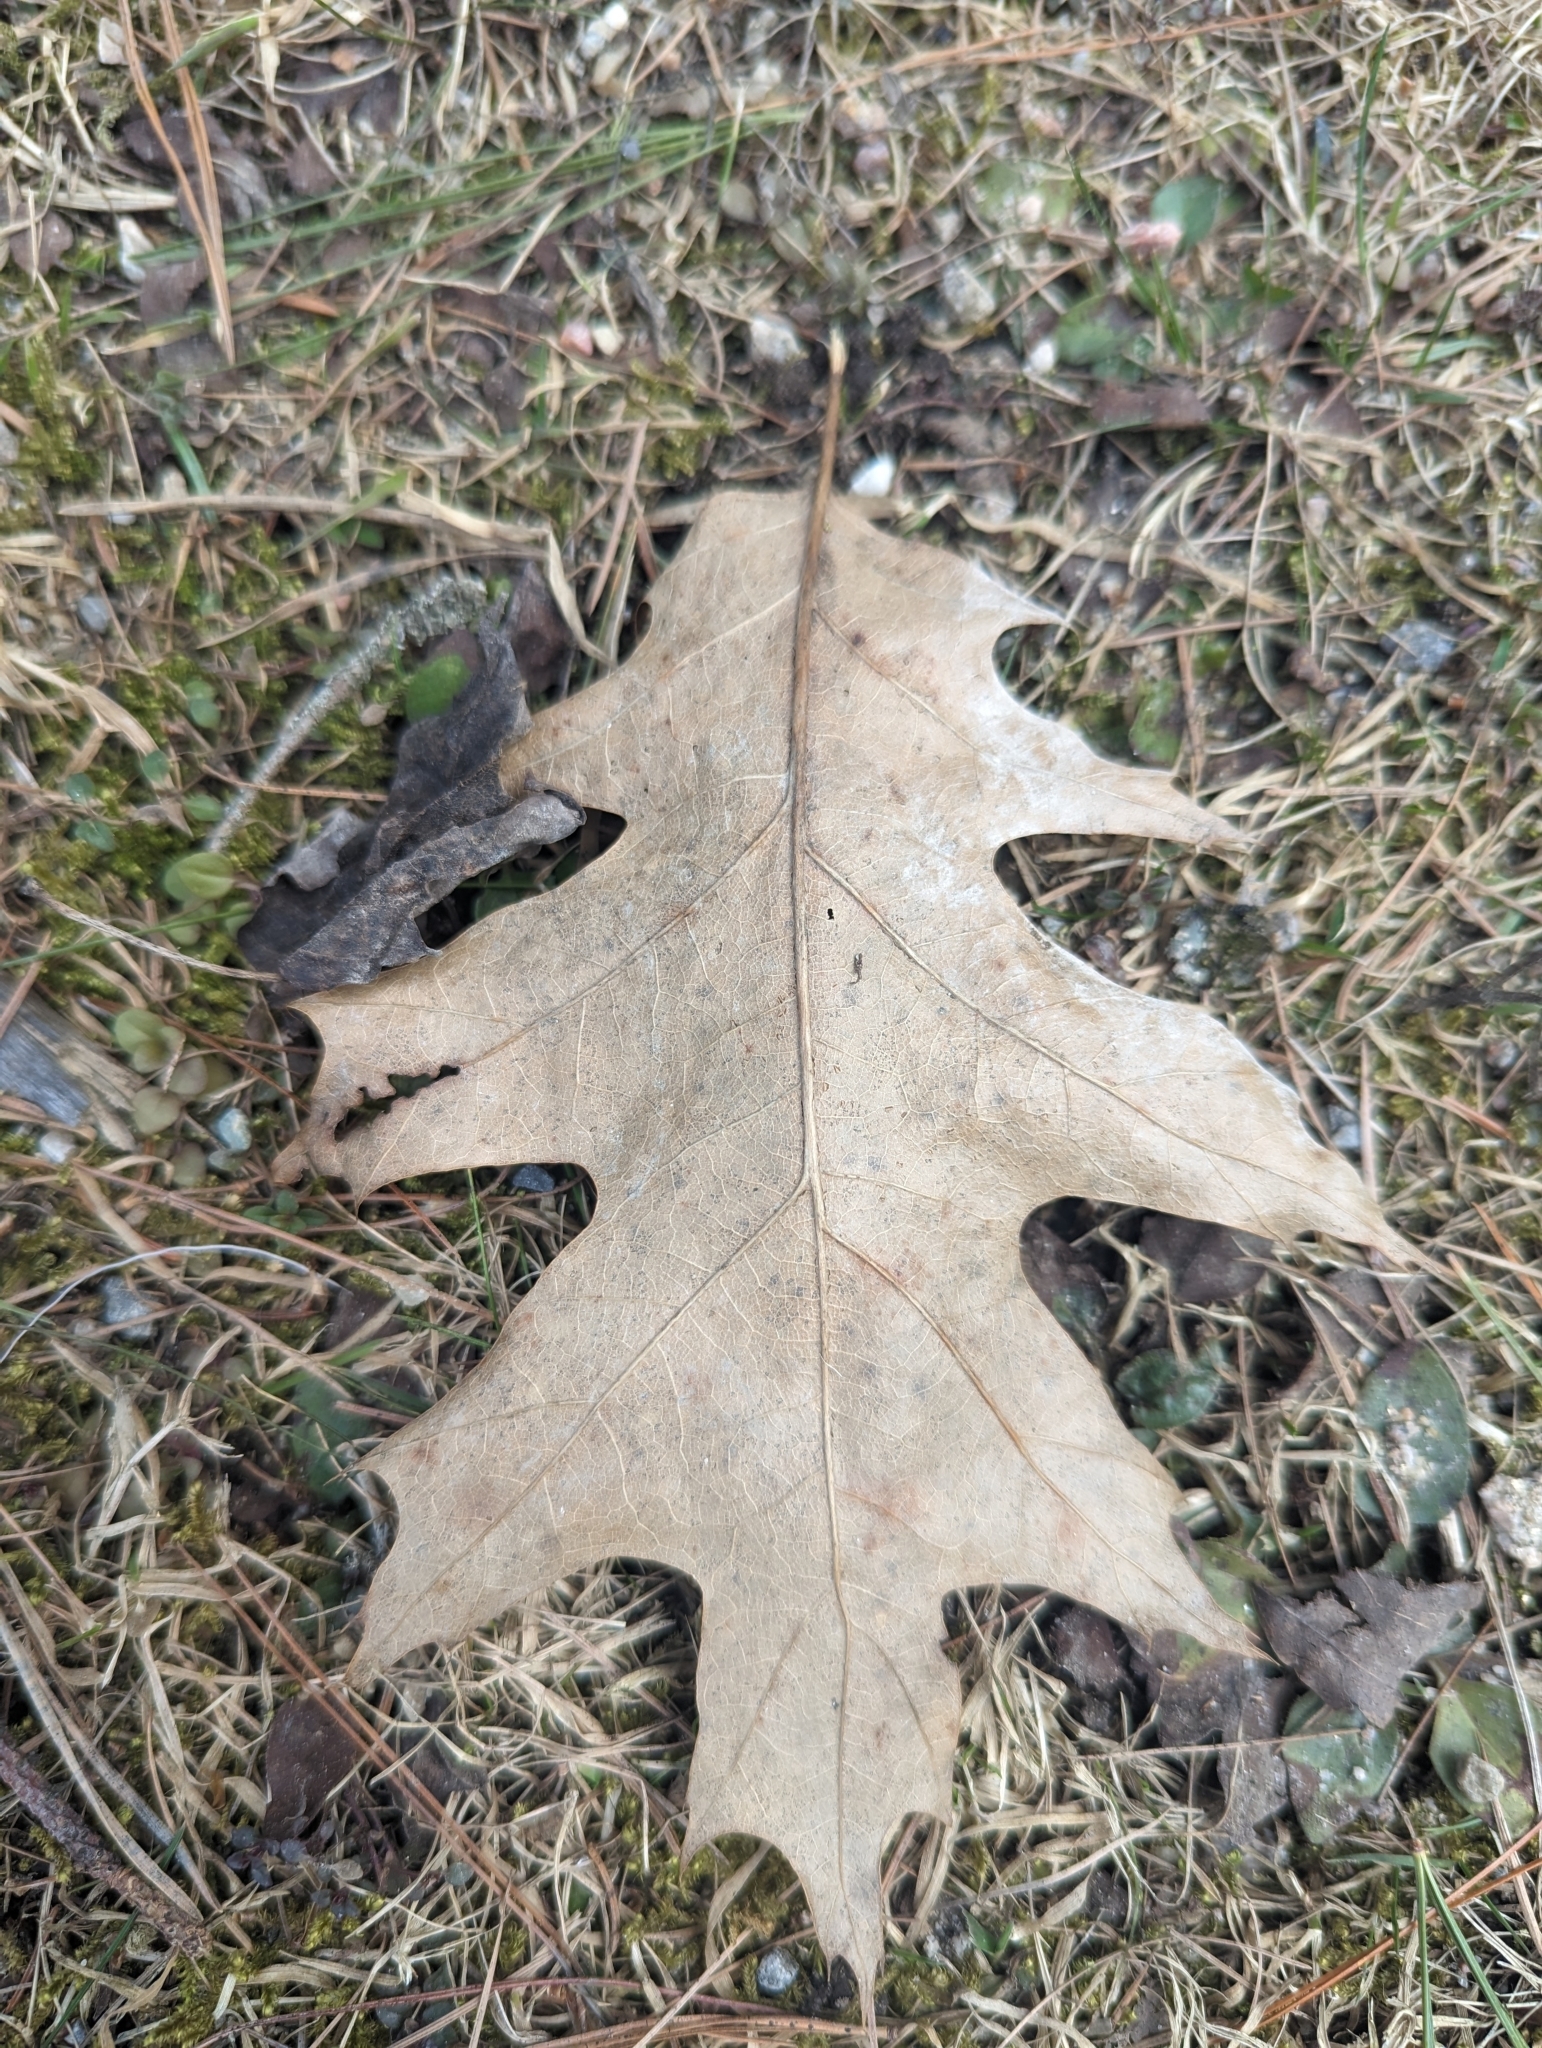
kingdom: Plantae
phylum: Tracheophyta
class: Magnoliopsida
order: Fagales
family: Fagaceae
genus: Quercus
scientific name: Quercus rubra
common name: Red oak
